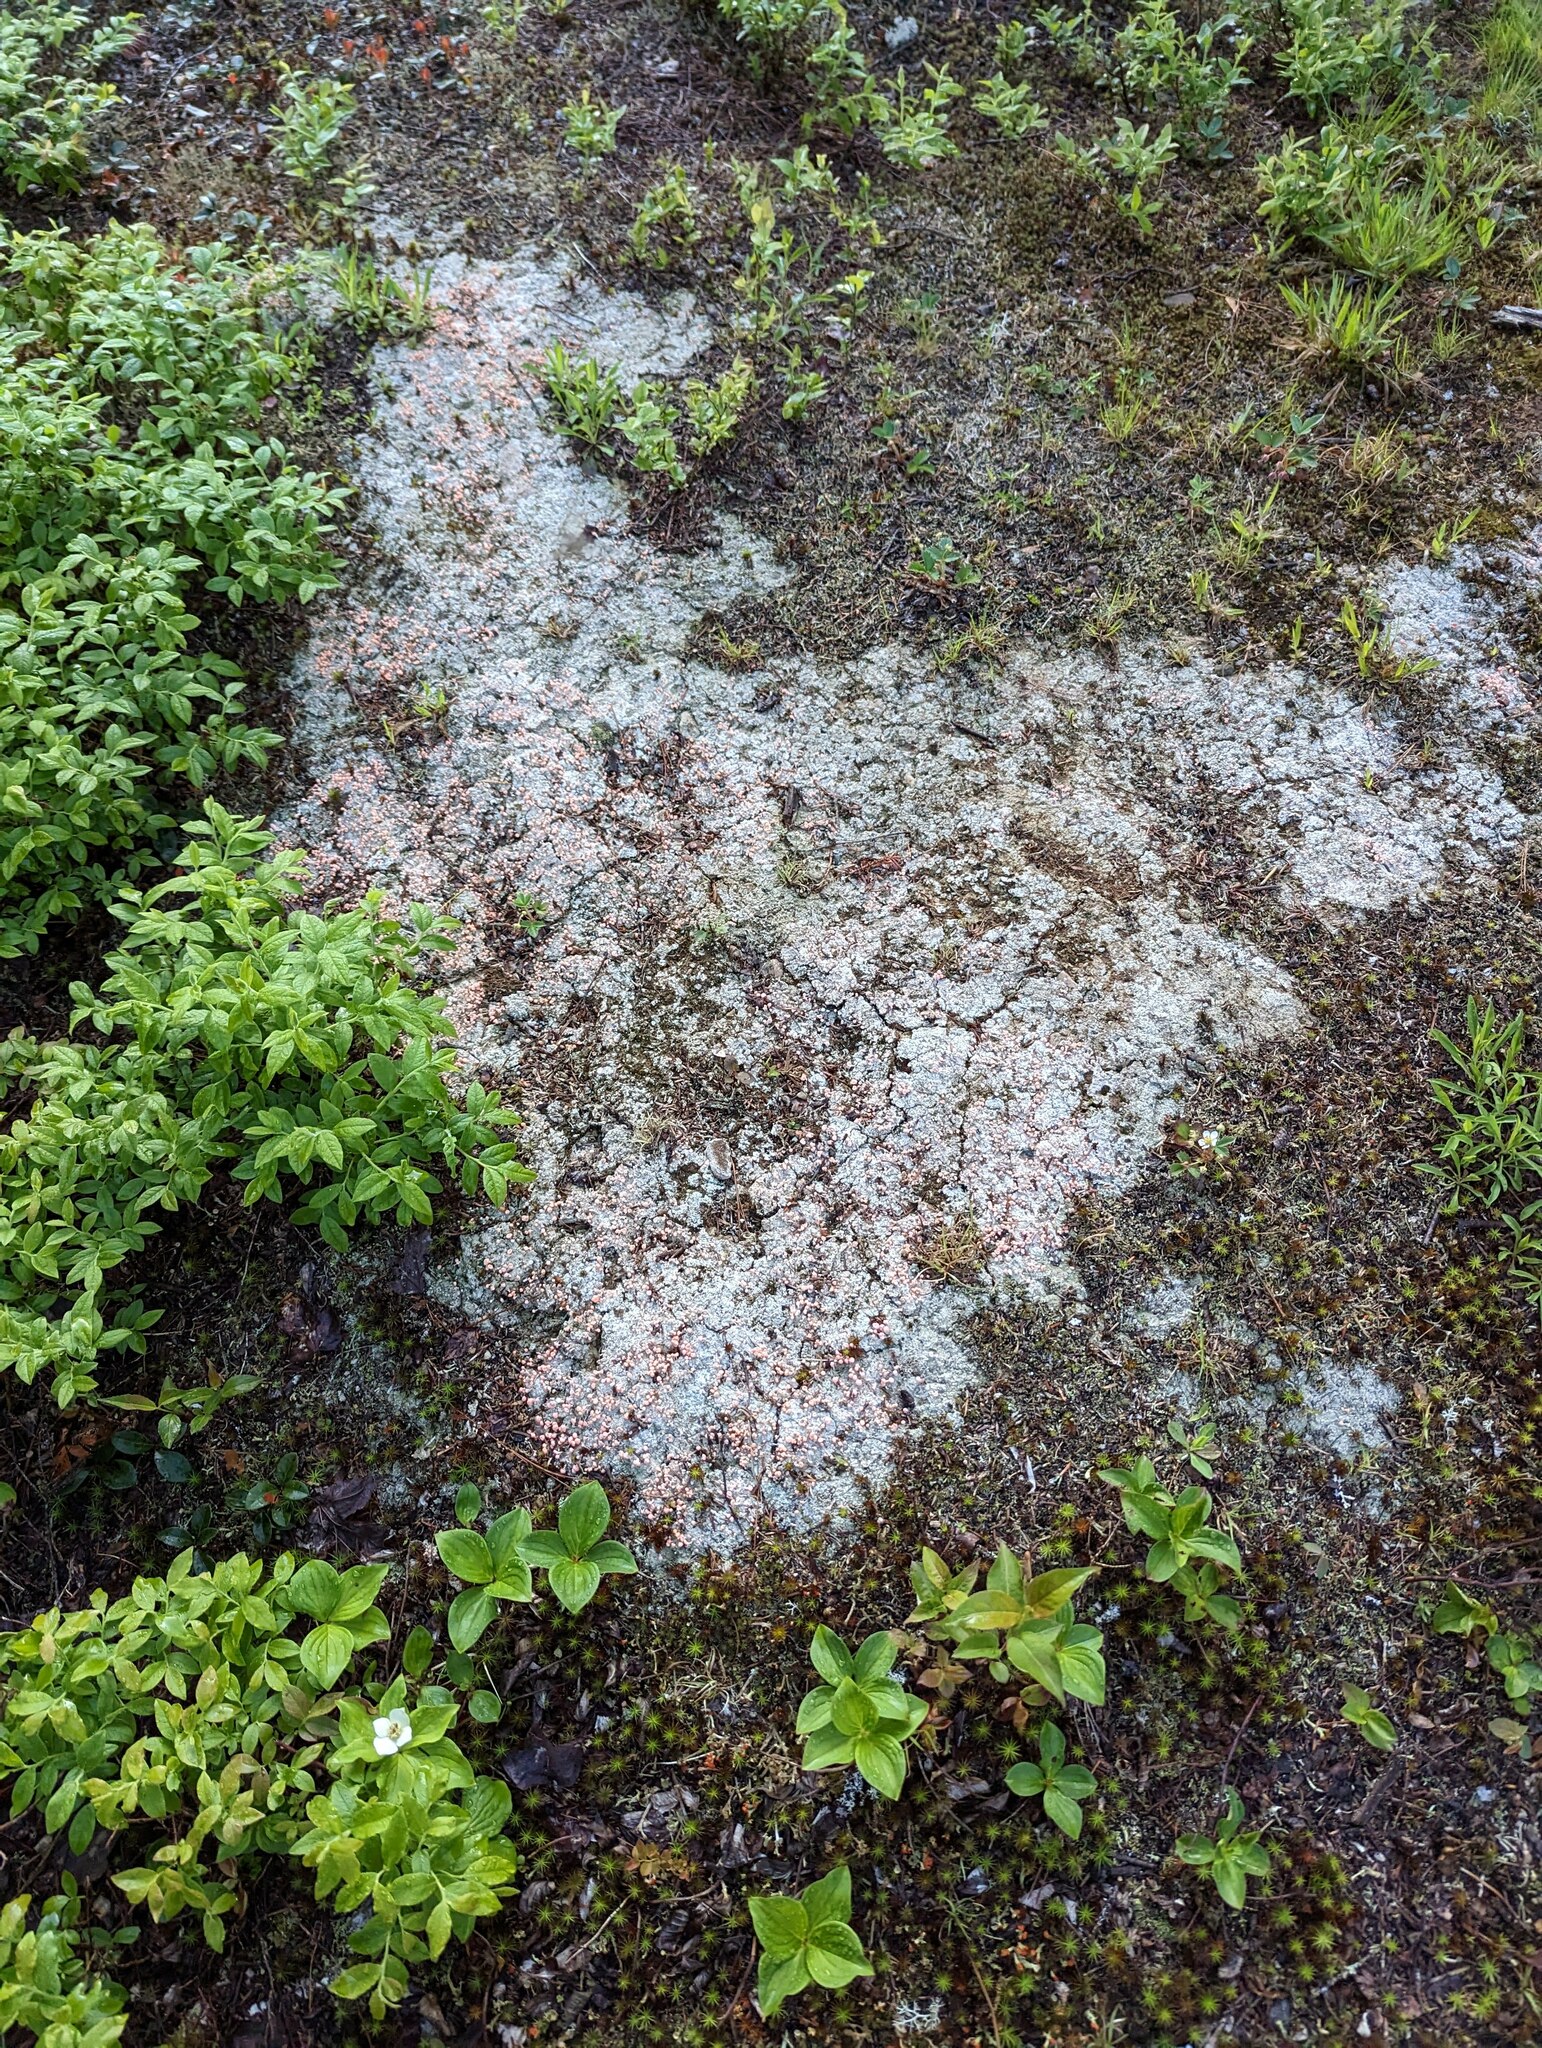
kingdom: Fungi
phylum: Ascomycota
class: Lecanoromycetes
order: Pertusariales
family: Icmadophilaceae
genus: Dibaeis
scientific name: Dibaeis baeomyces
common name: Pink earth lichen
